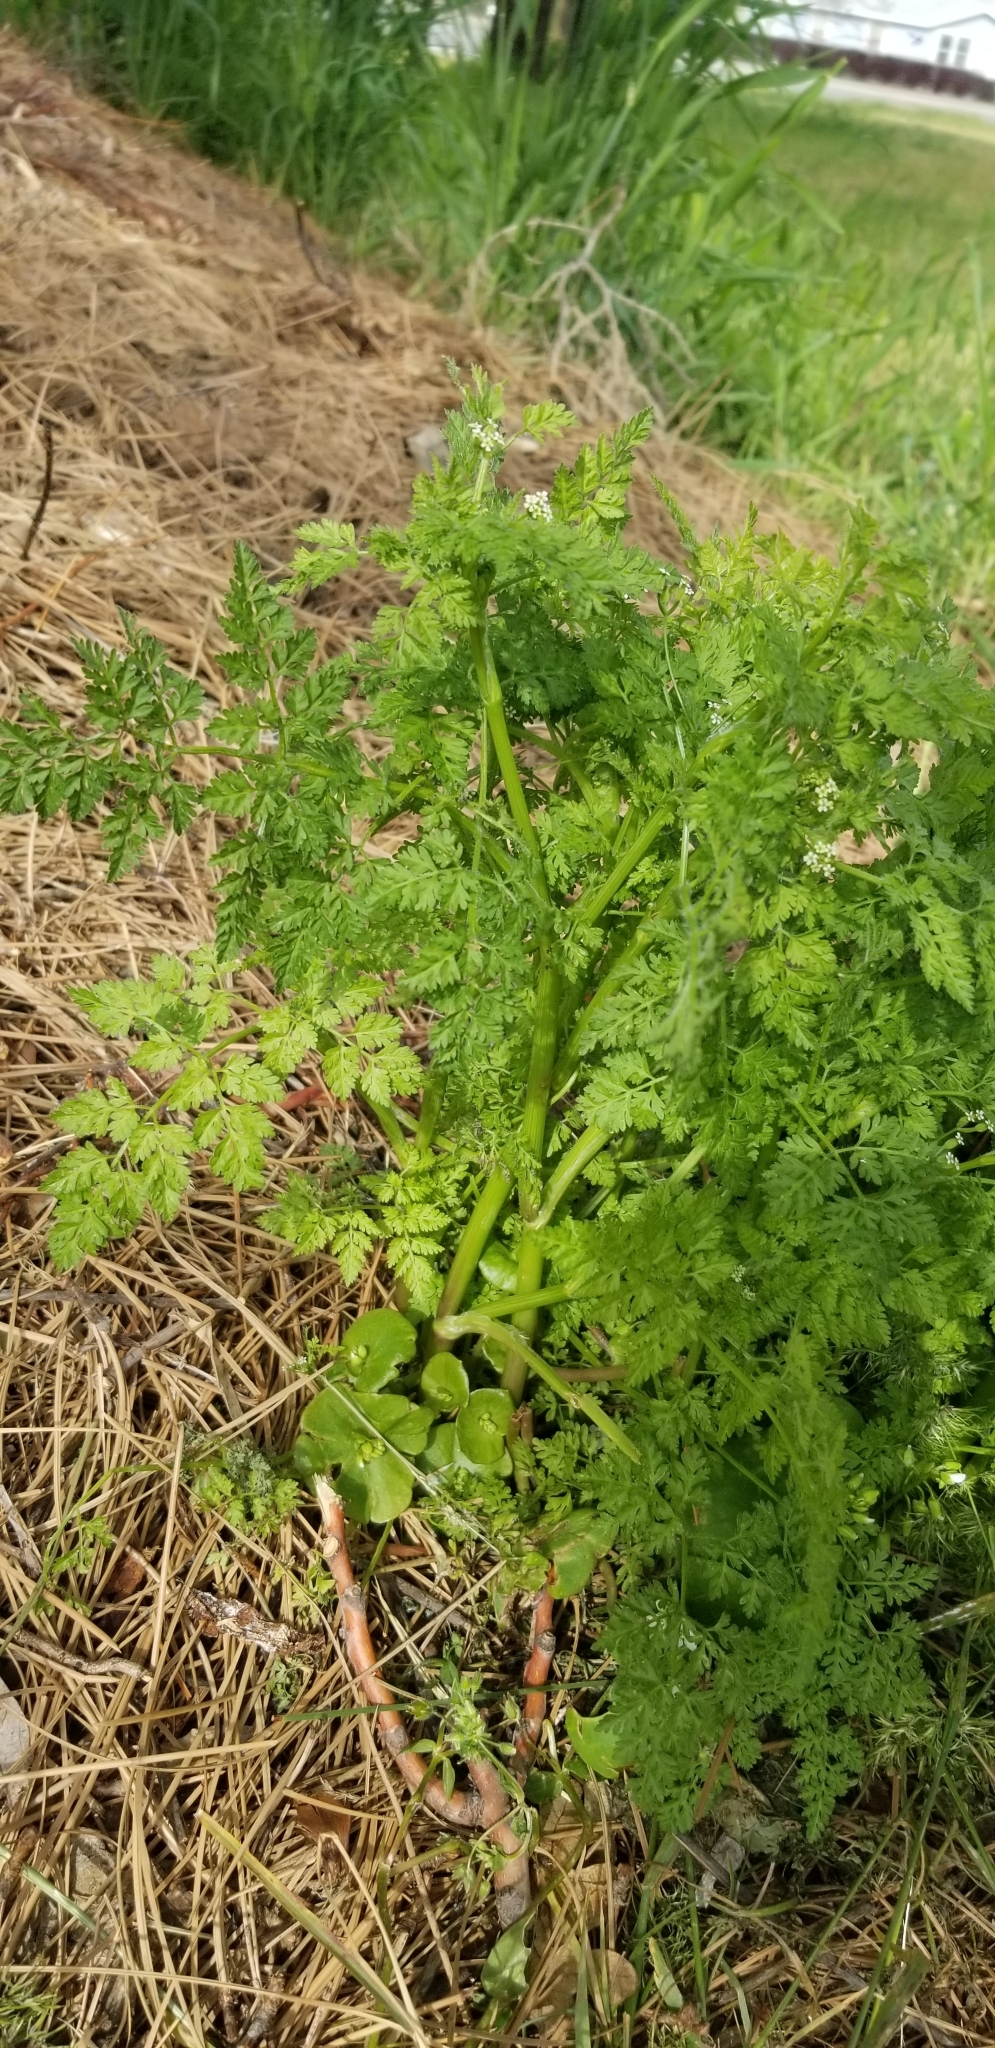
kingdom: Plantae
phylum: Tracheophyta
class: Magnoliopsida
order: Apiales
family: Apiaceae
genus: Anthriscus
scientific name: Anthriscus caucalis
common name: Bur chervil
